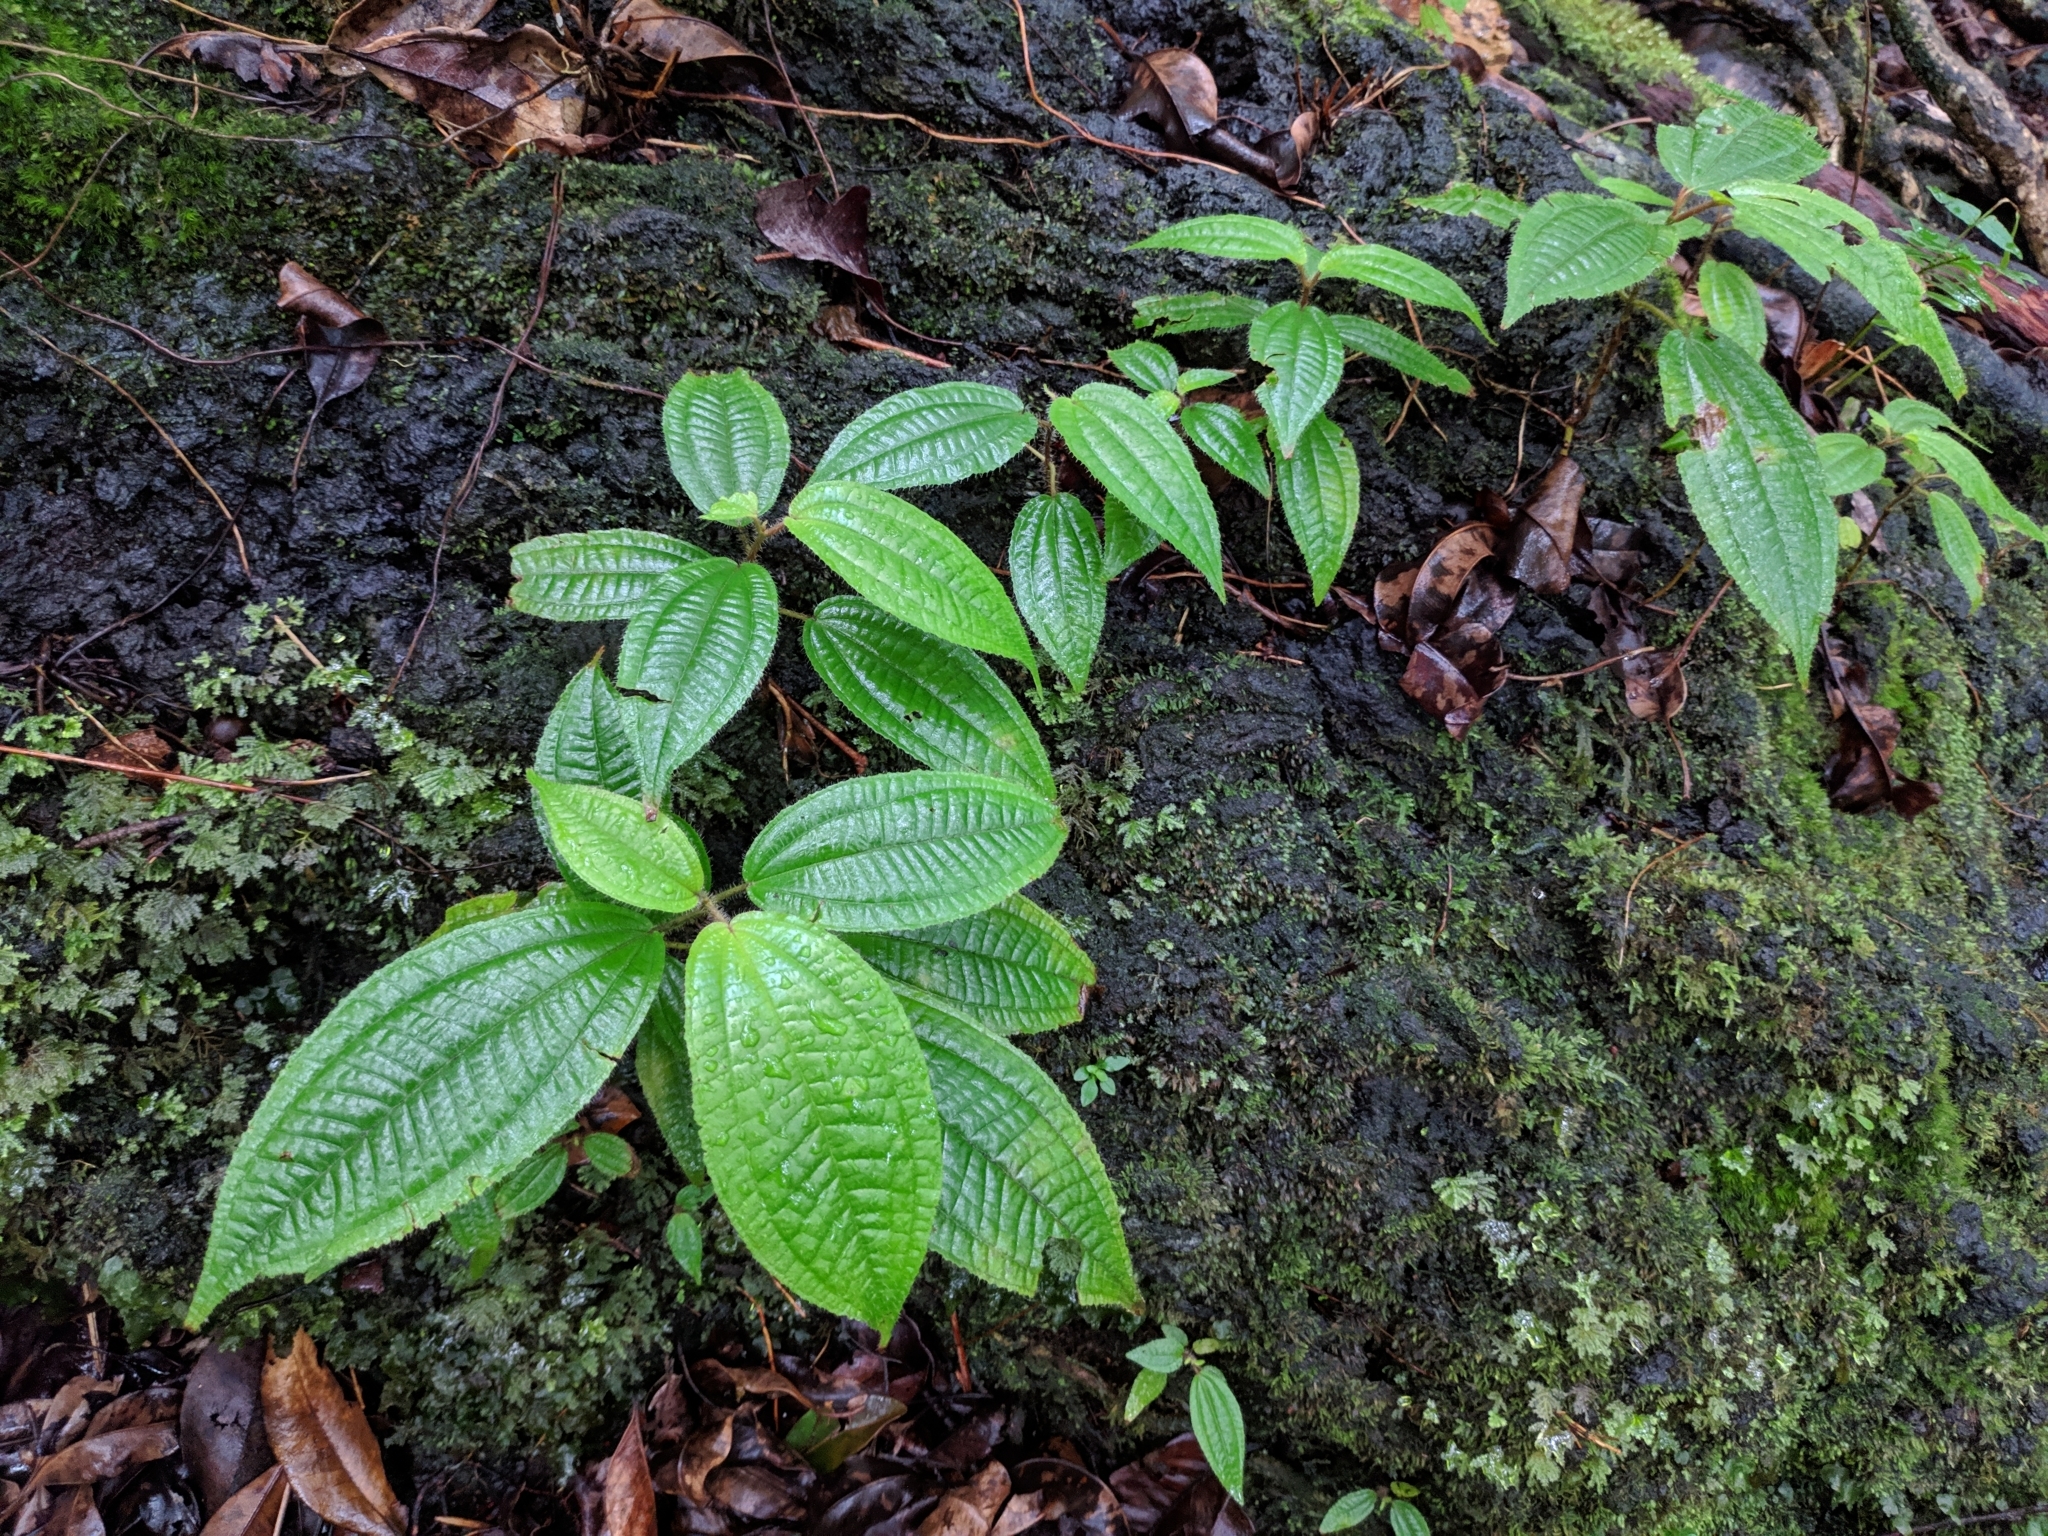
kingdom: Plantae
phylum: Tracheophyta
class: Magnoliopsida
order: Myrtales
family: Melastomataceae
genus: Miconia
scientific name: Miconia crenata
